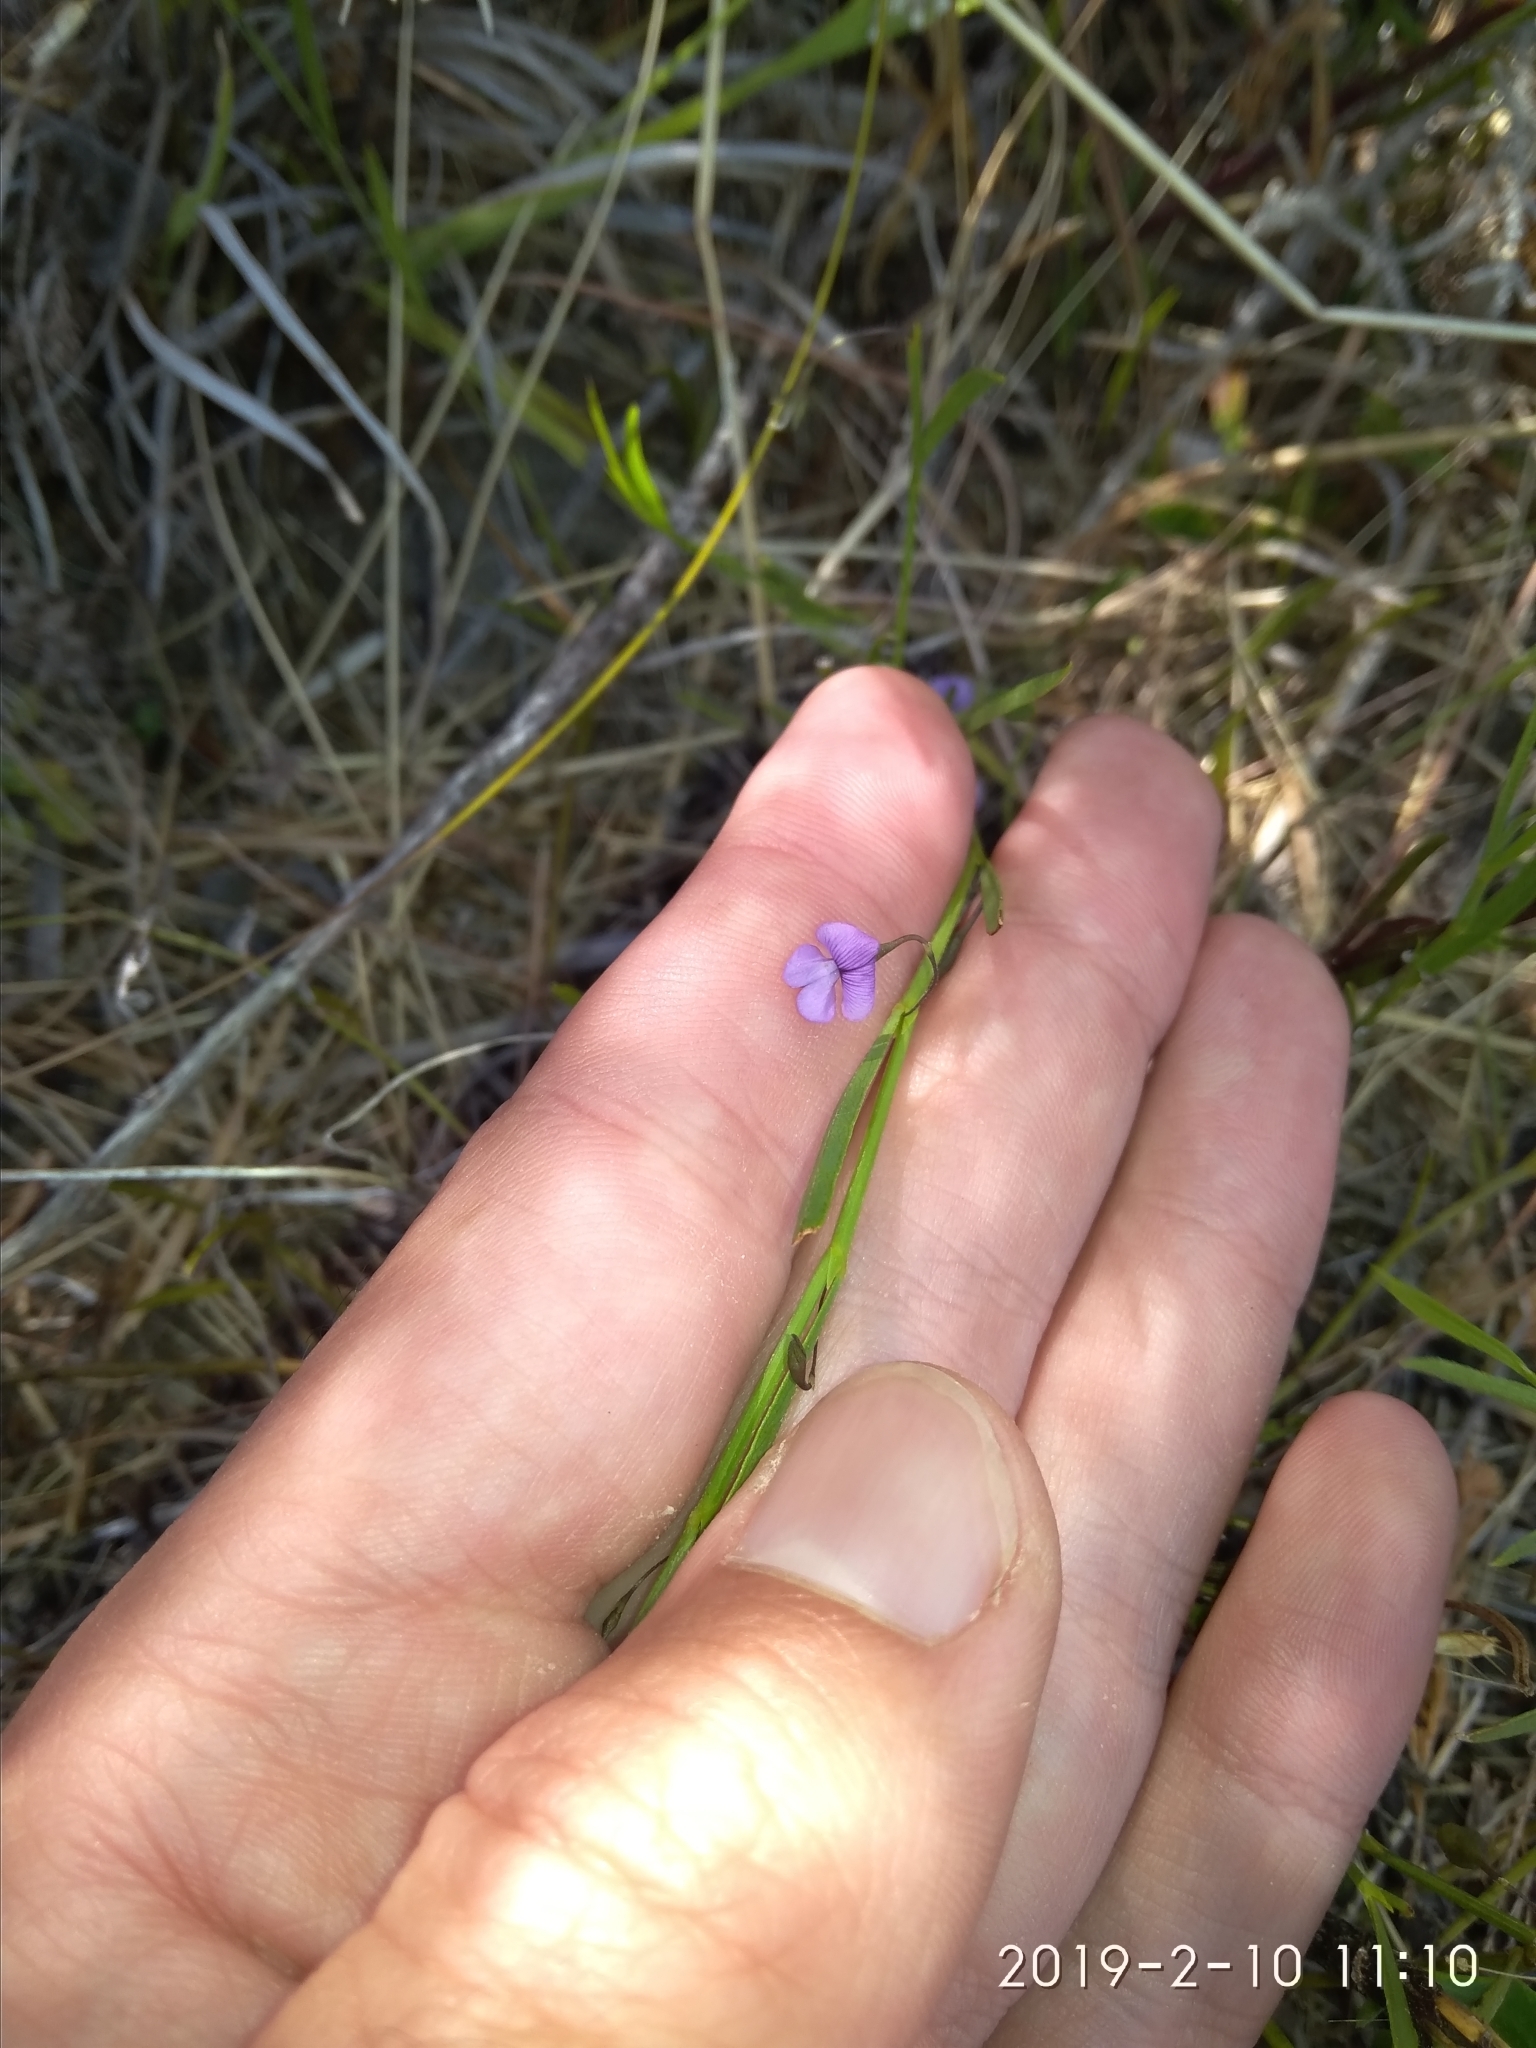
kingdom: Plantae
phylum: Tracheophyta
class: Magnoliopsida
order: Fabales
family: Fabaceae
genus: Psoralea
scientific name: Psoralea laxa
